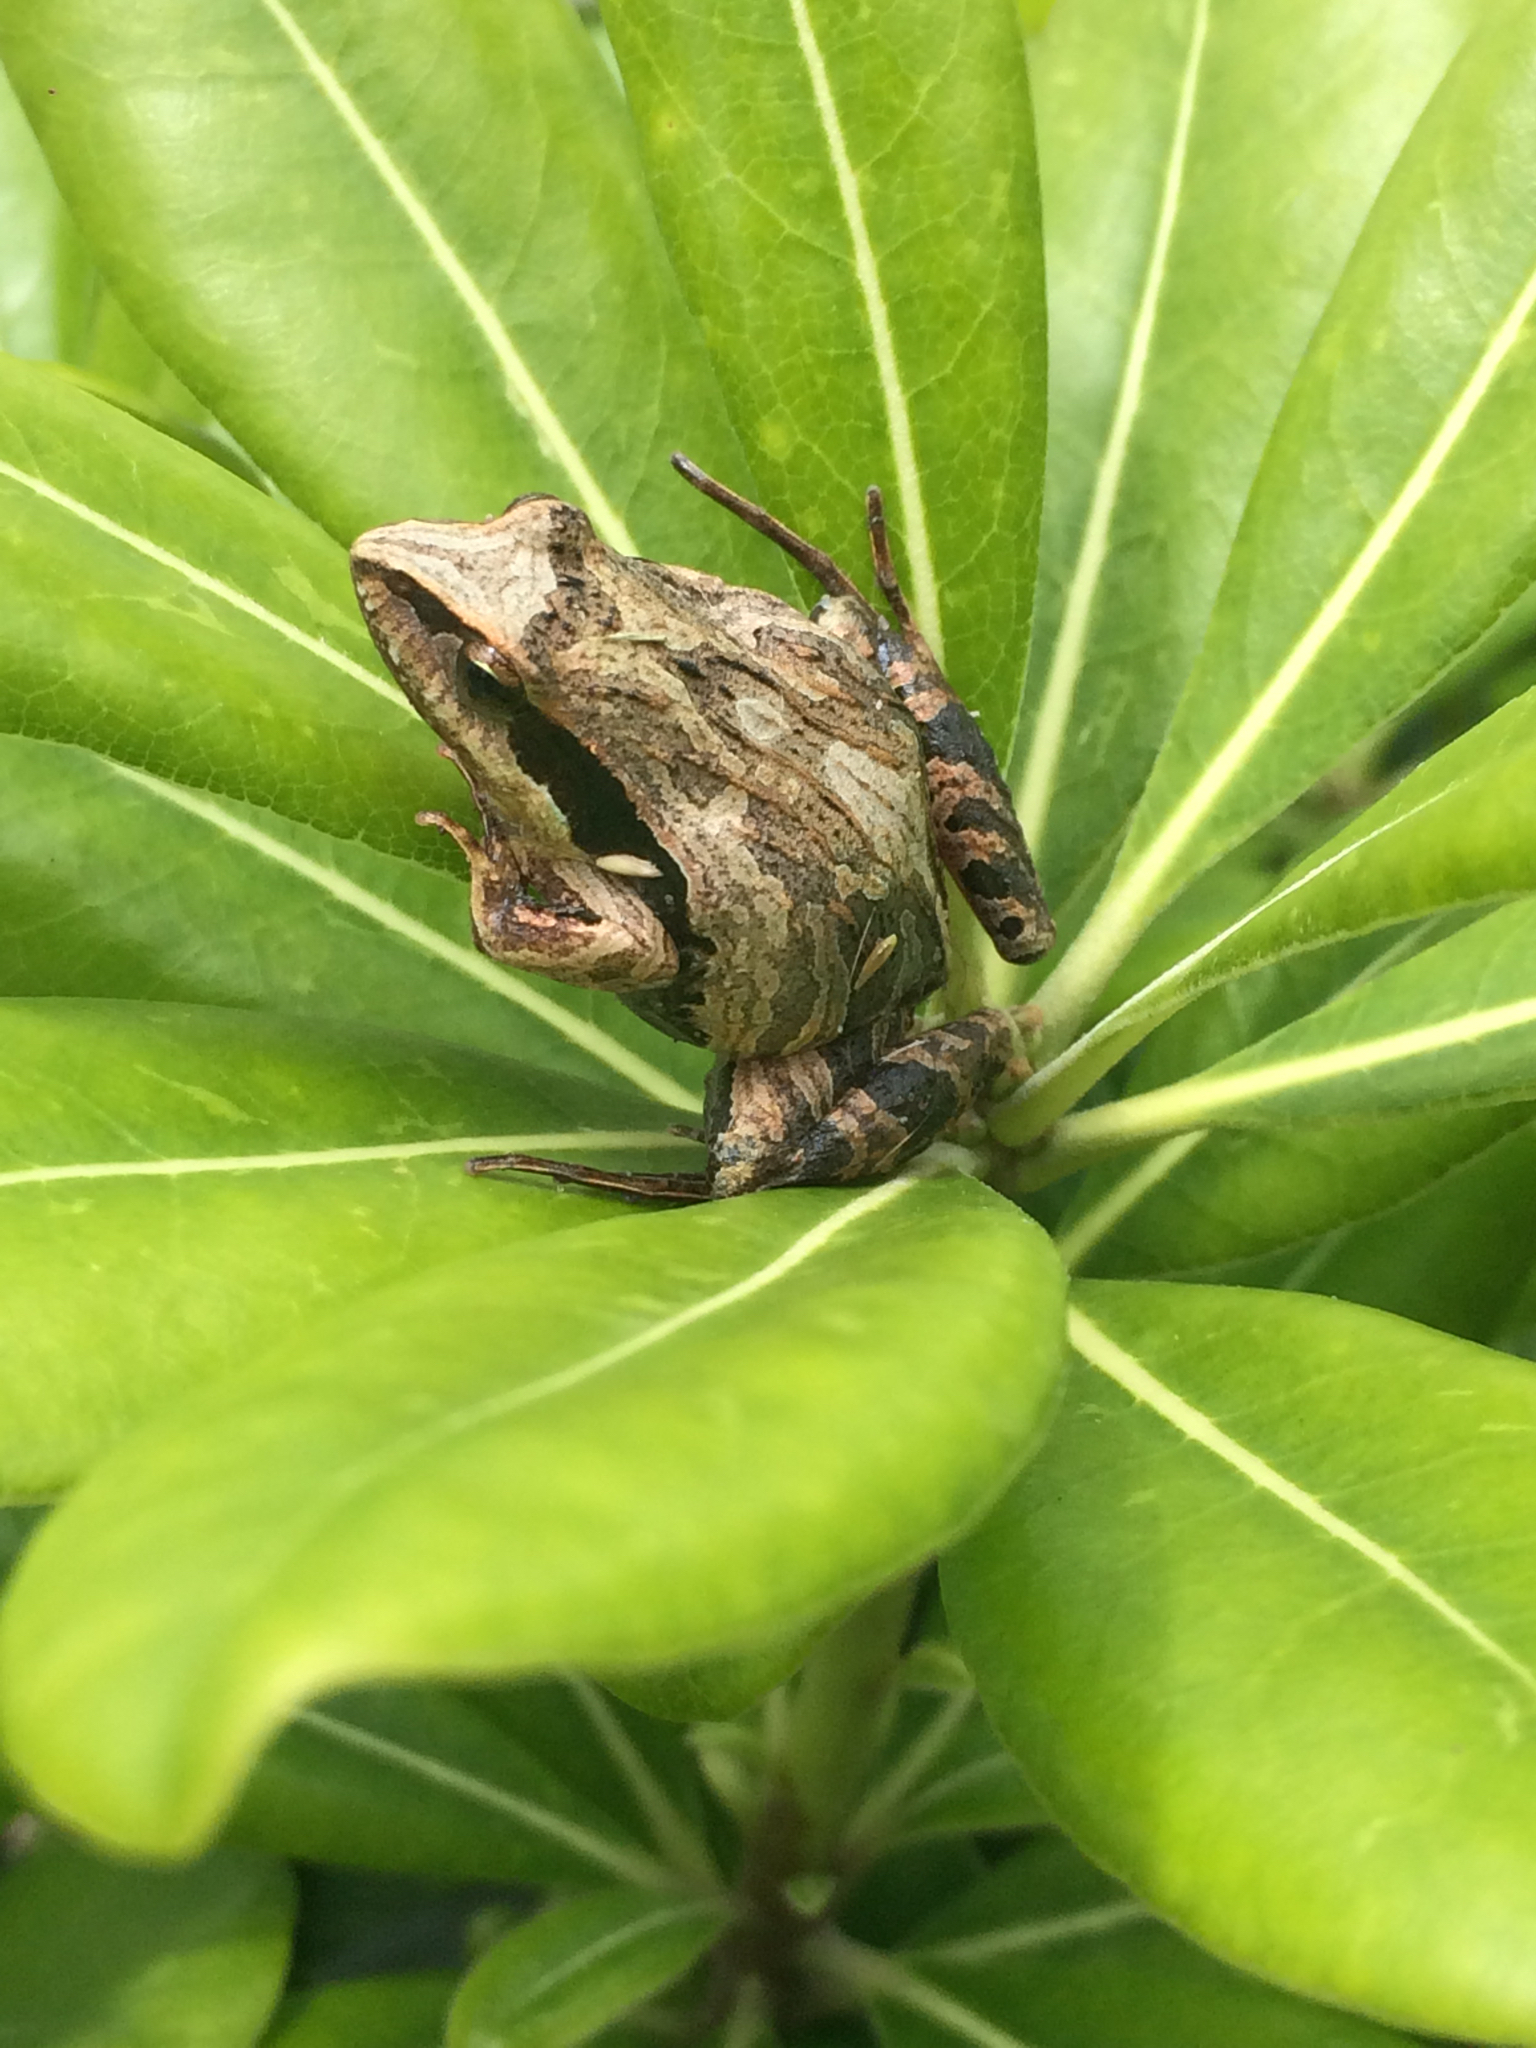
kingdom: Animalia
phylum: Chordata
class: Amphibia
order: Anura
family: Leptodactylidae
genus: Physalaemus
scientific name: Physalaemus cuvieri
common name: Barker frog
